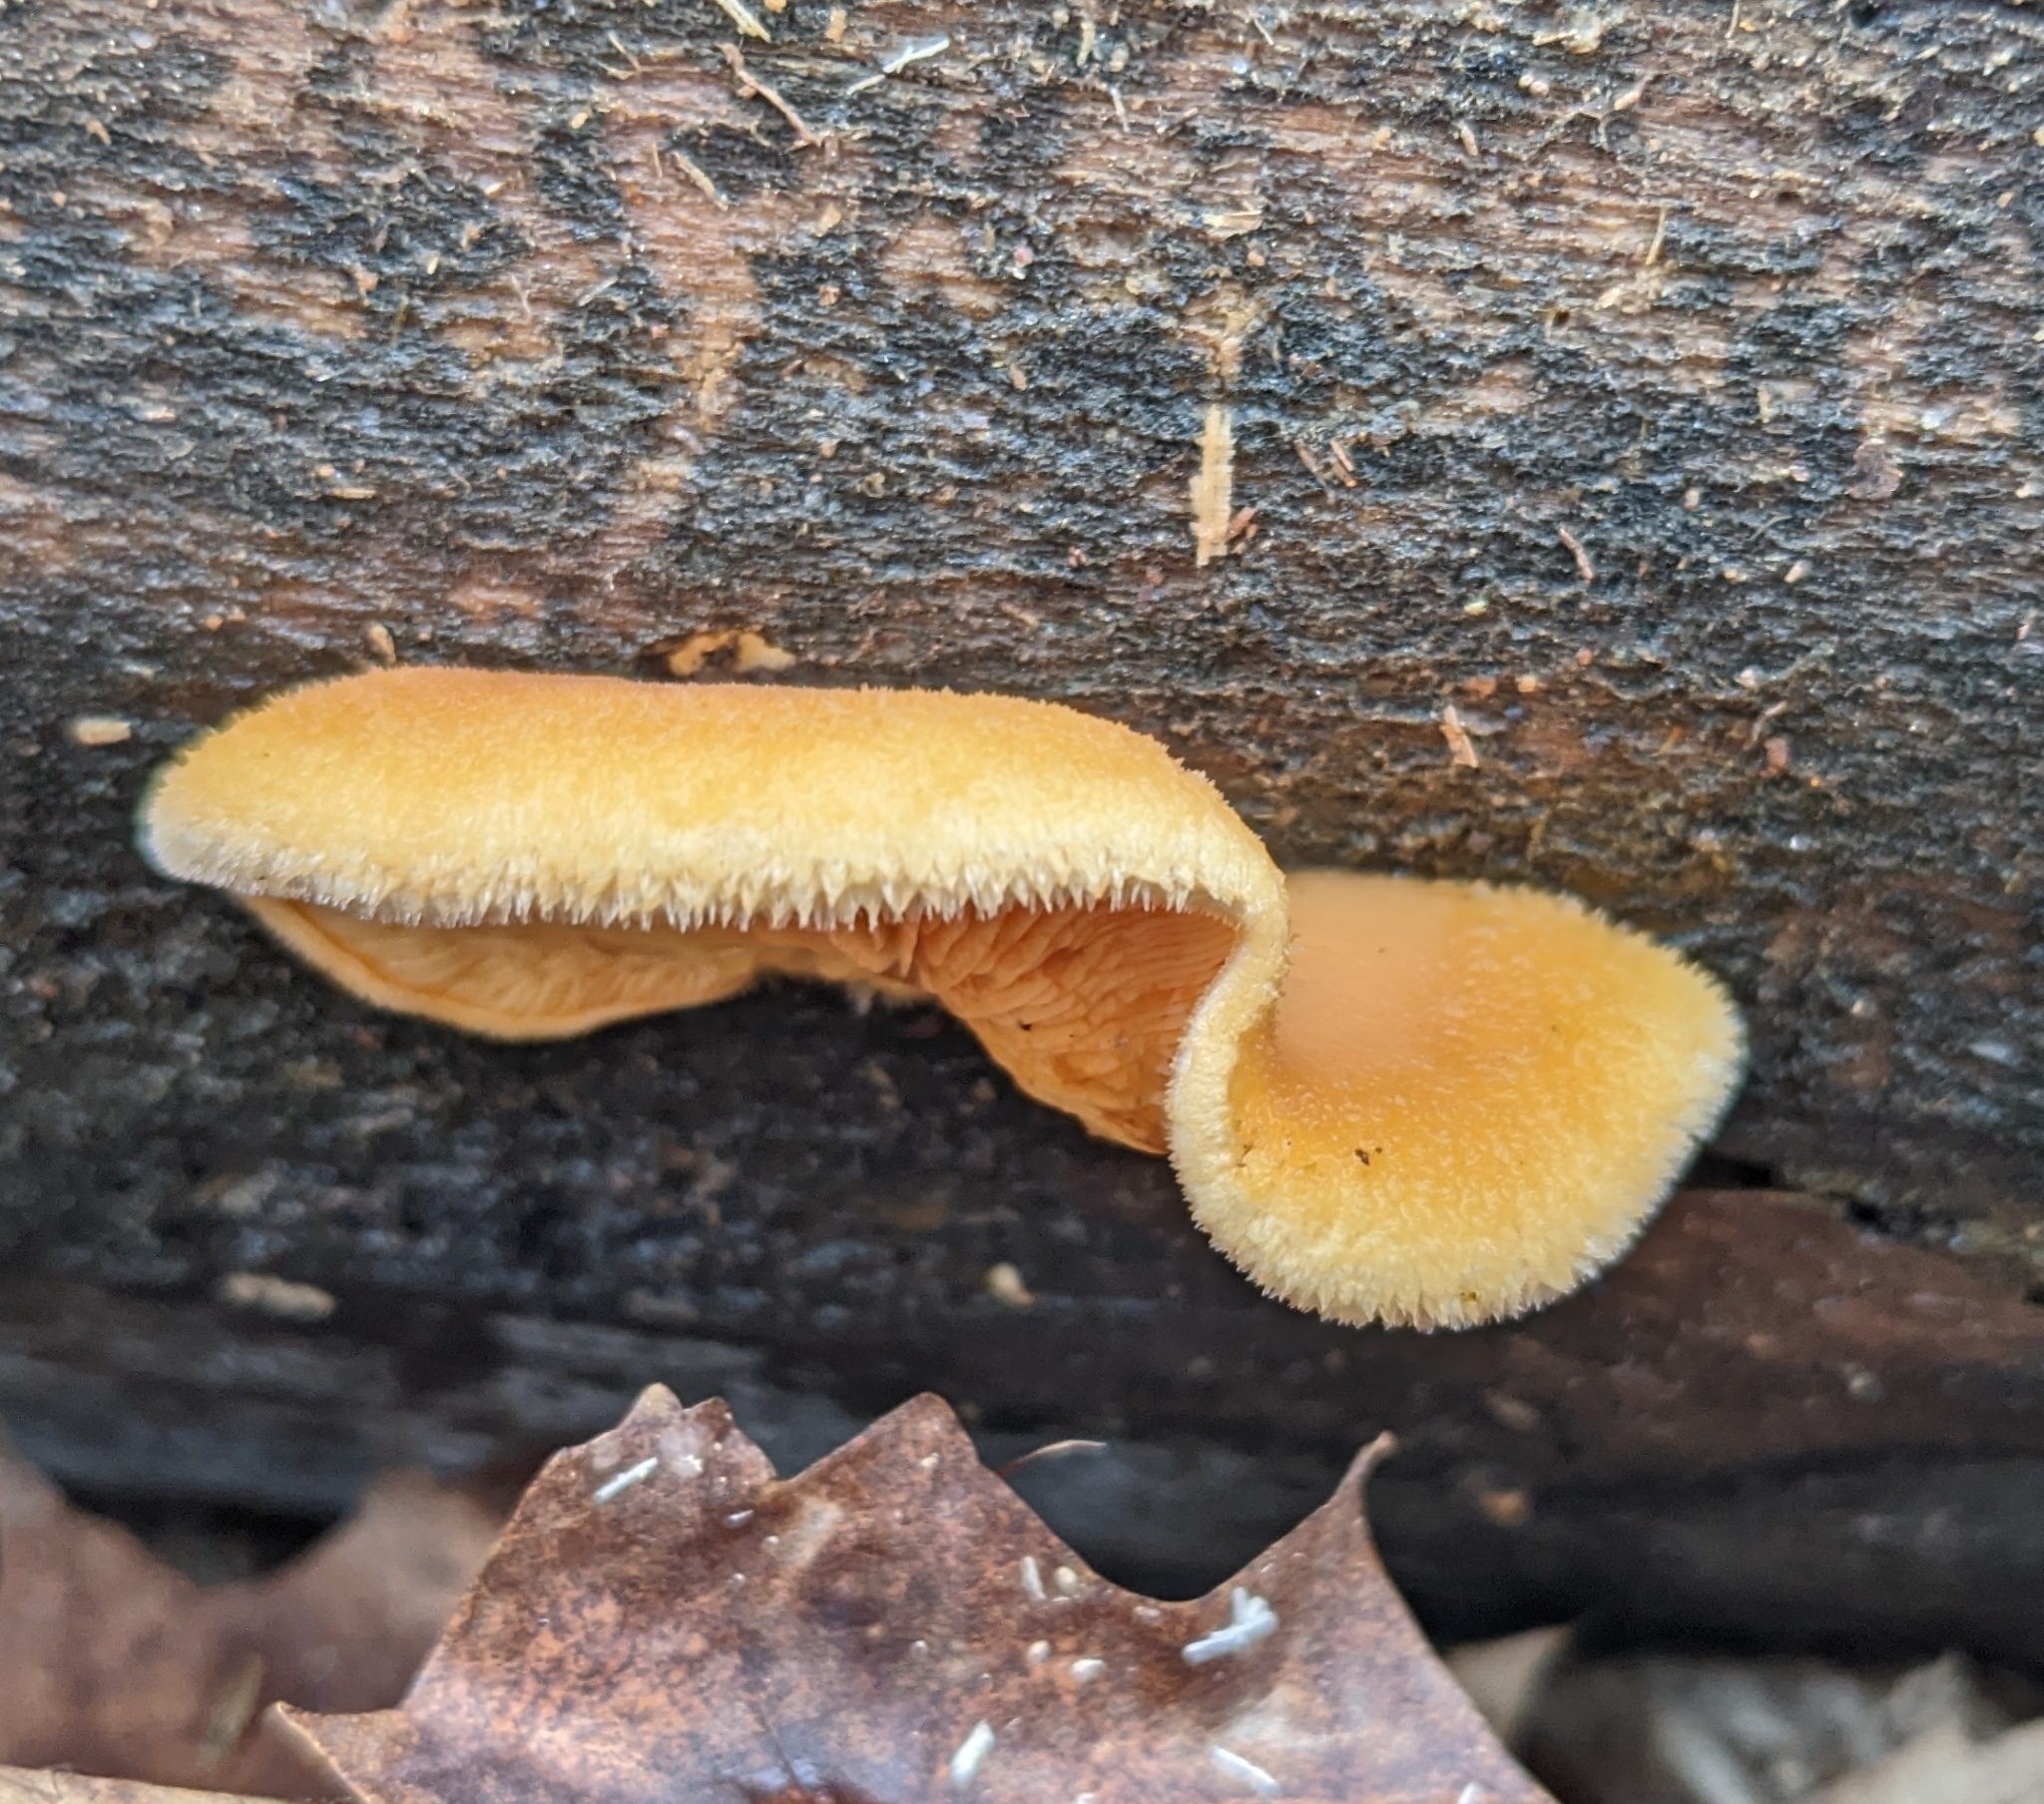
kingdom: Fungi
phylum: Basidiomycota
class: Agaricomycetes
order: Agaricales
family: Phyllotopsidaceae
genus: Phyllotopsis
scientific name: Phyllotopsis nidulans
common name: Orange mock oyster
